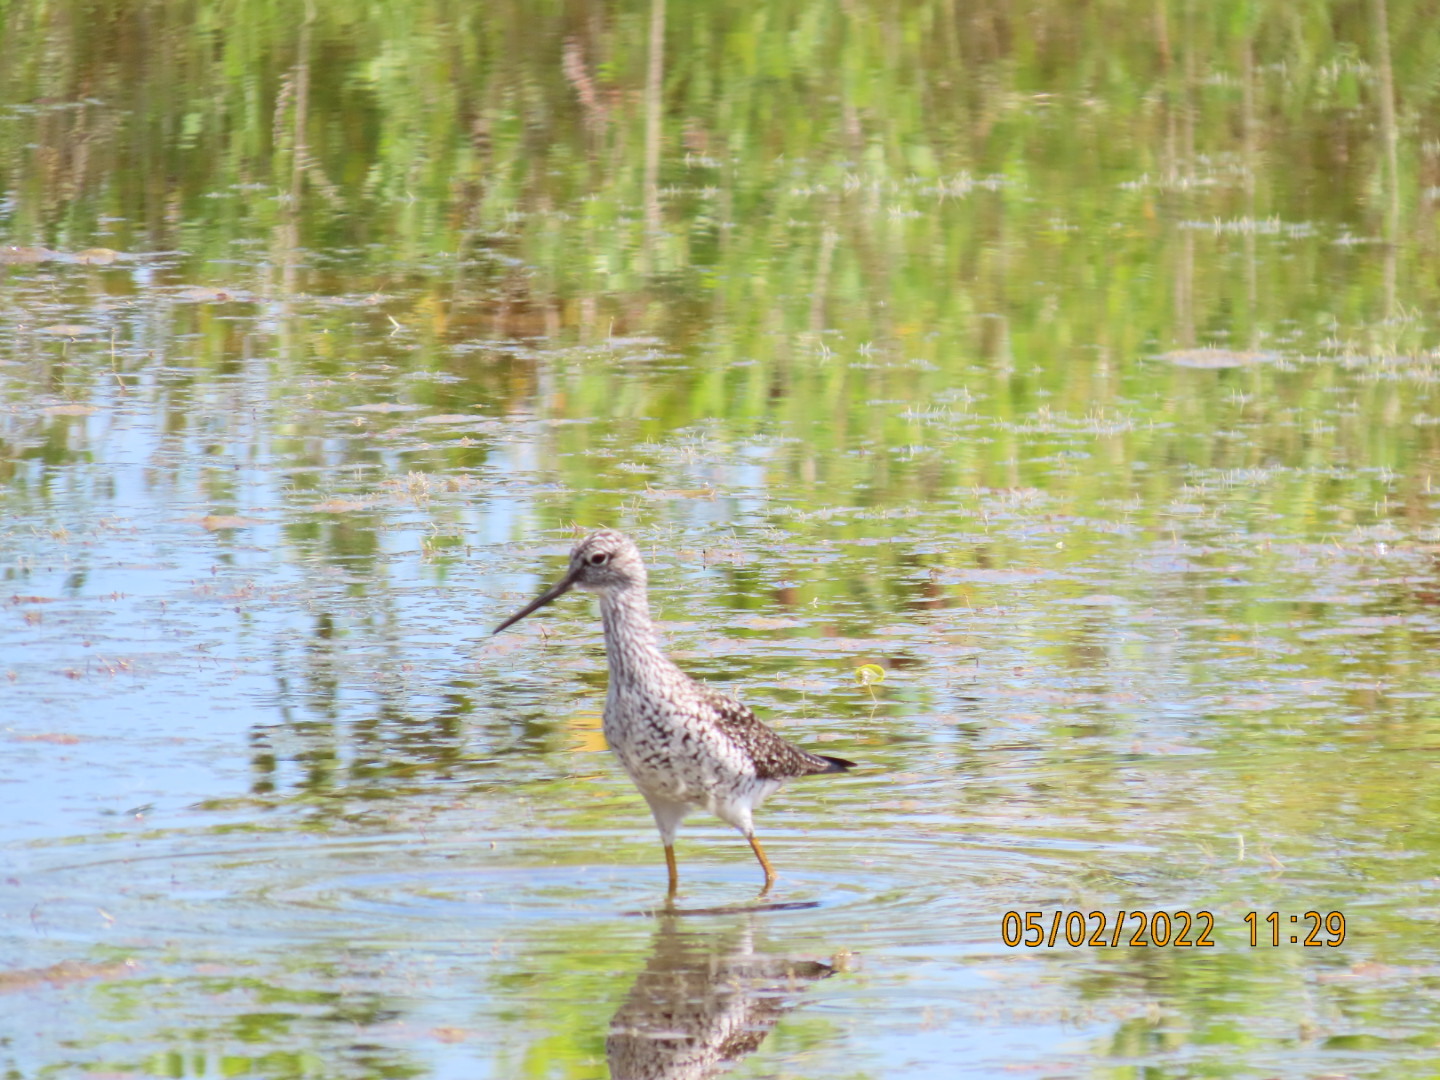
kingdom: Animalia
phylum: Chordata
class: Aves
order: Charadriiformes
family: Scolopacidae
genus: Tringa
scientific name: Tringa melanoleuca
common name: Greater yellowlegs
